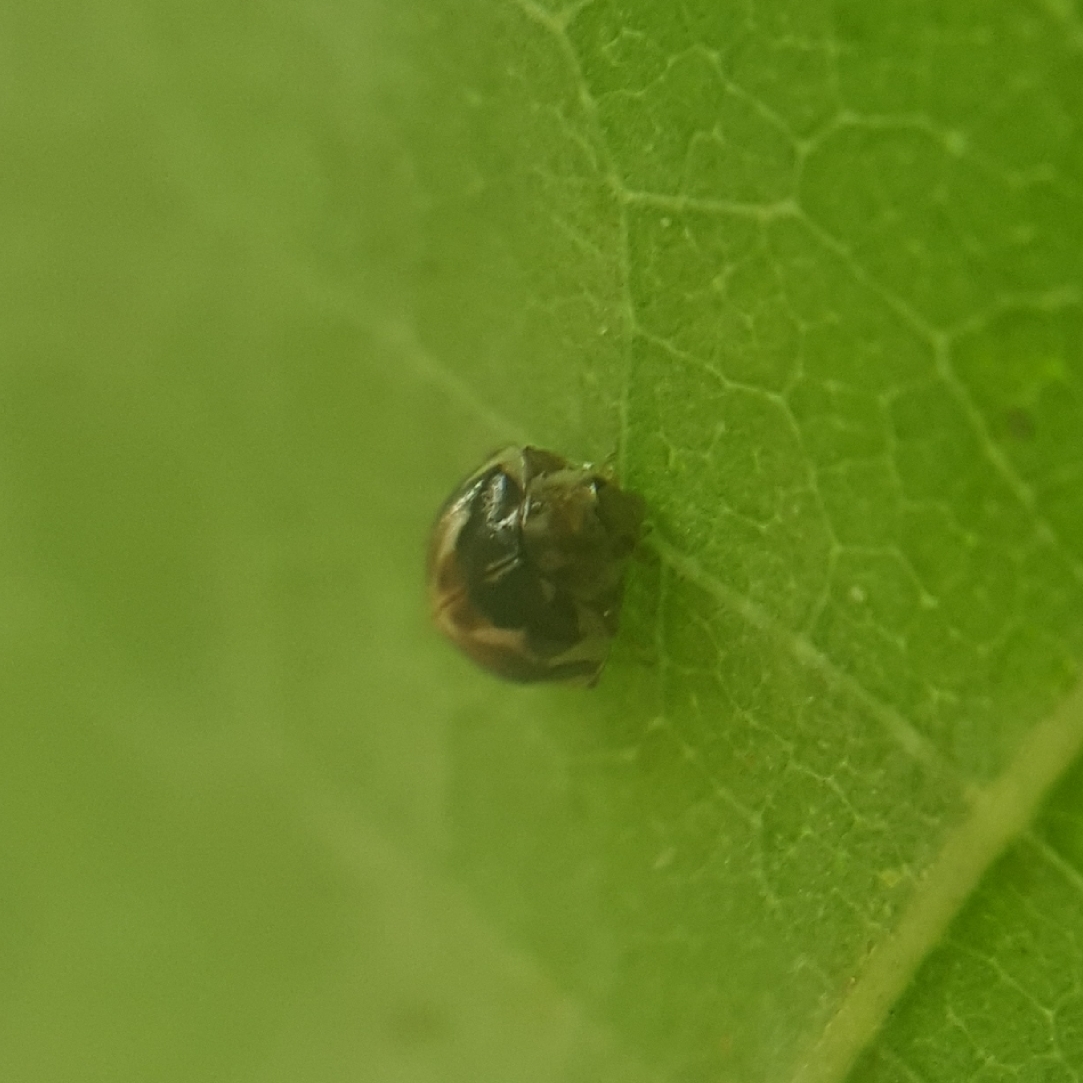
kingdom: Animalia
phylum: Arthropoda
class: Insecta
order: Coleoptera
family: Coccinellidae
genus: Psyllobora
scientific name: Psyllobora vigintimaculata
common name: Ladybird beetle
